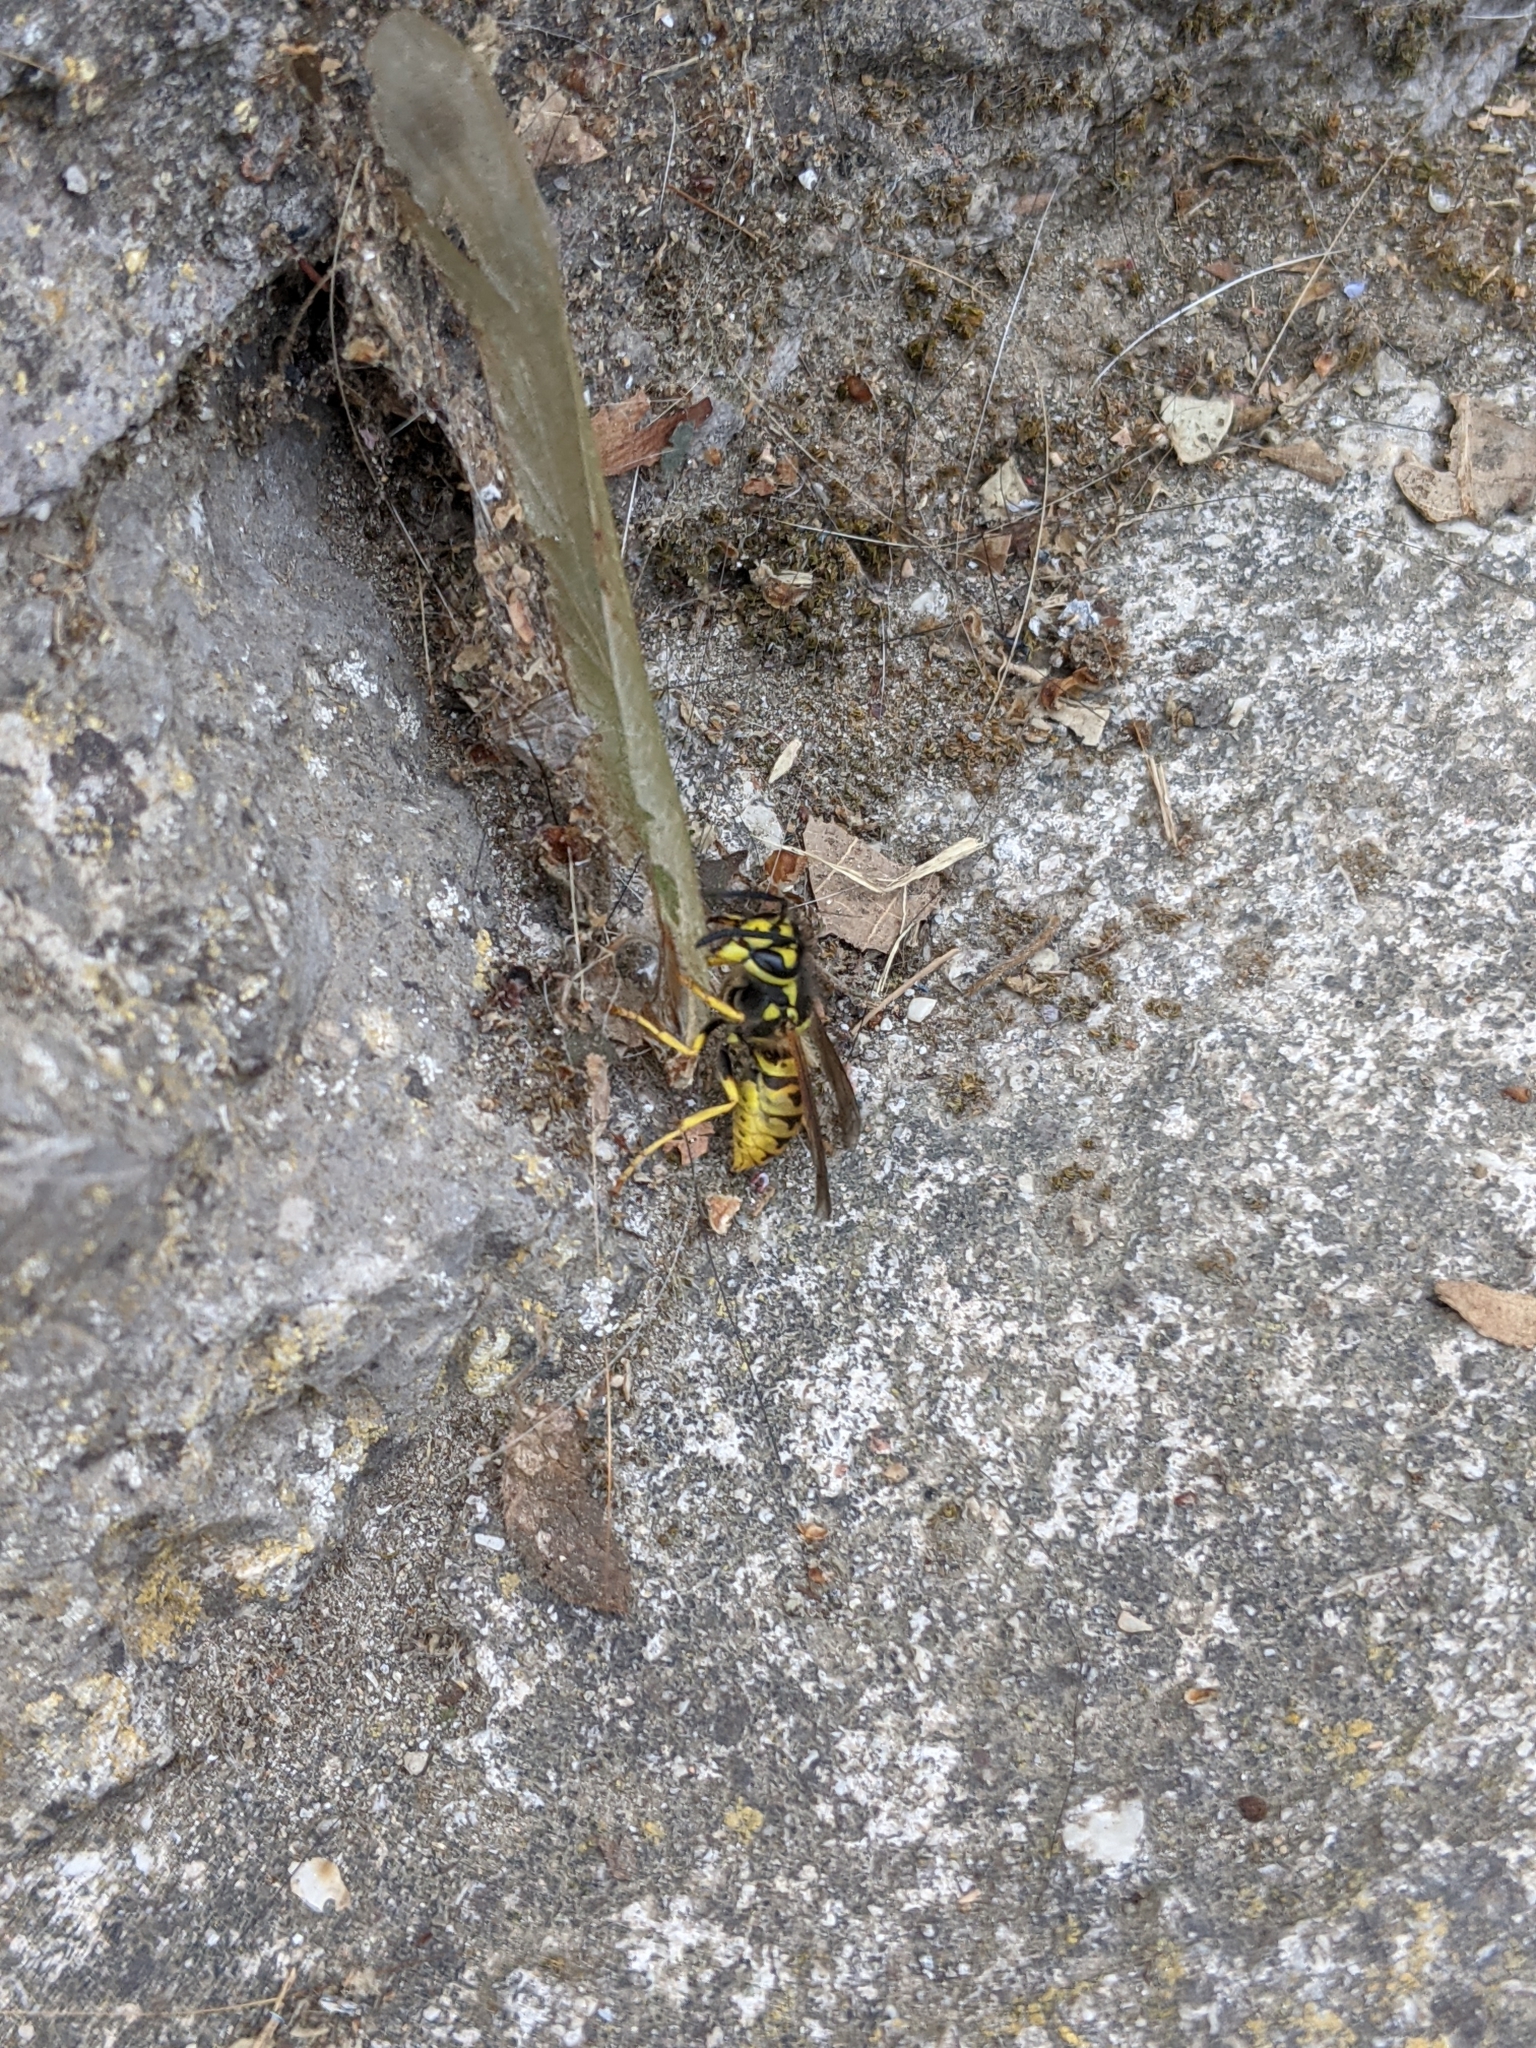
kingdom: Animalia
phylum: Arthropoda
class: Insecta
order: Hymenoptera
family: Vespidae
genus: Vespula
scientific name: Vespula germanica
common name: German wasp
